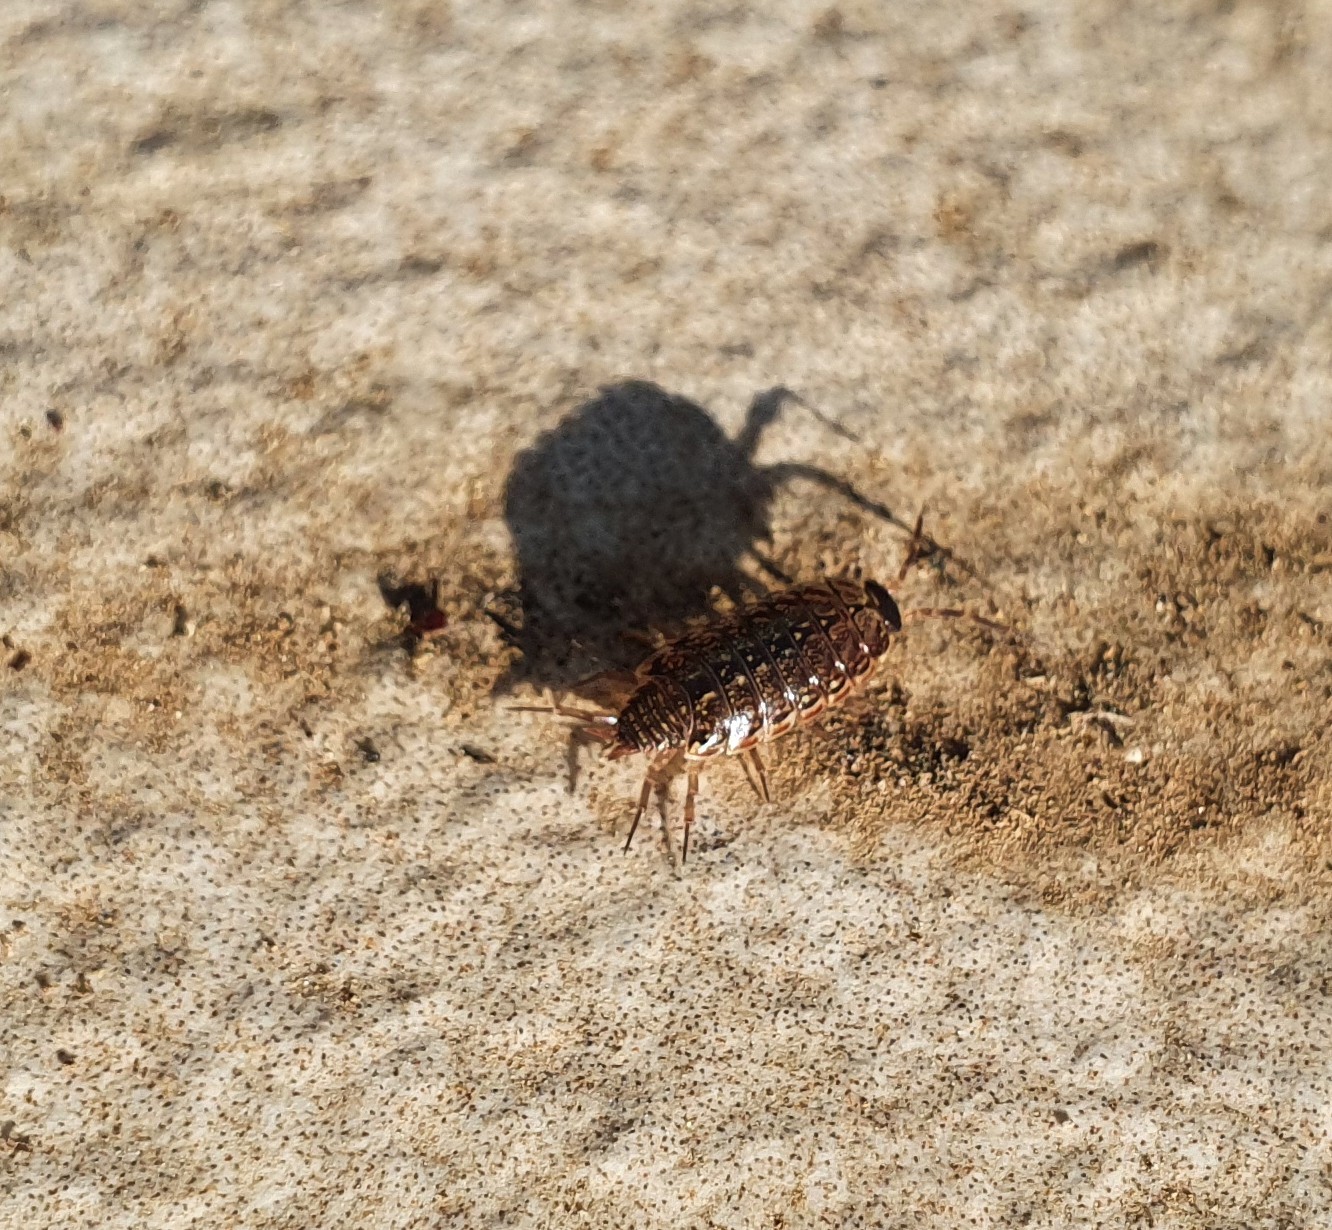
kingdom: Animalia
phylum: Arthropoda
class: Malacostraca
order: Isopoda
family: Philosciidae
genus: Philoscia
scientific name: Philoscia muscorum
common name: Common striped woodlouse
